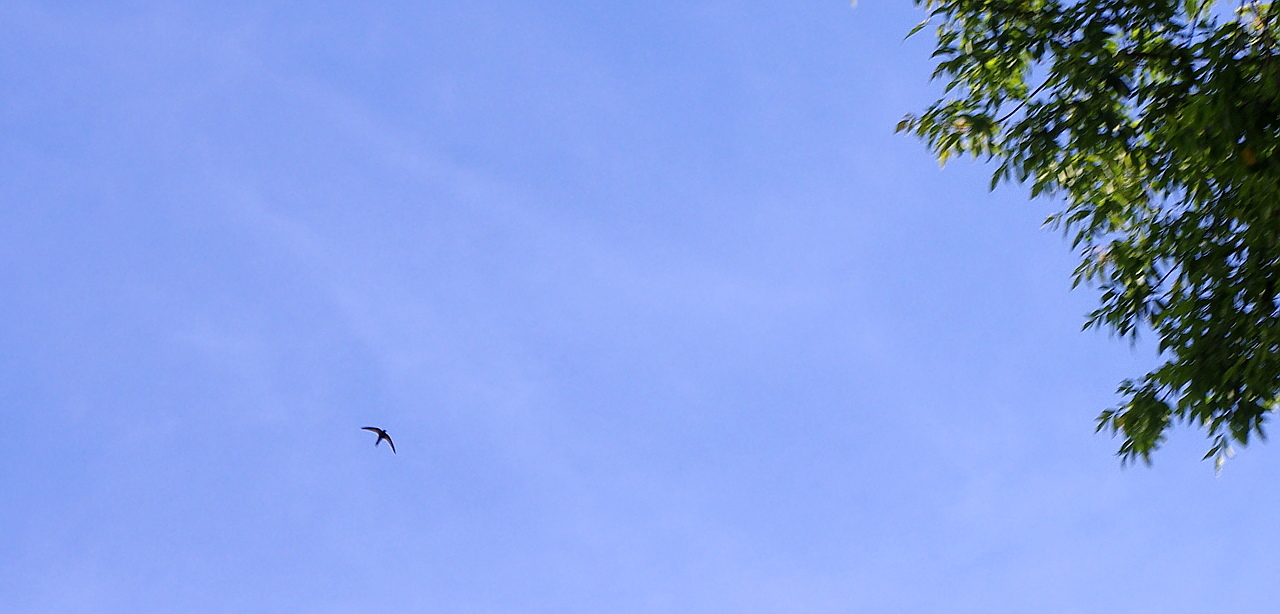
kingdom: Animalia
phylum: Chordata
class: Aves
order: Apodiformes
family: Apodidae
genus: Apus
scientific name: Apus apus
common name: Common swift
